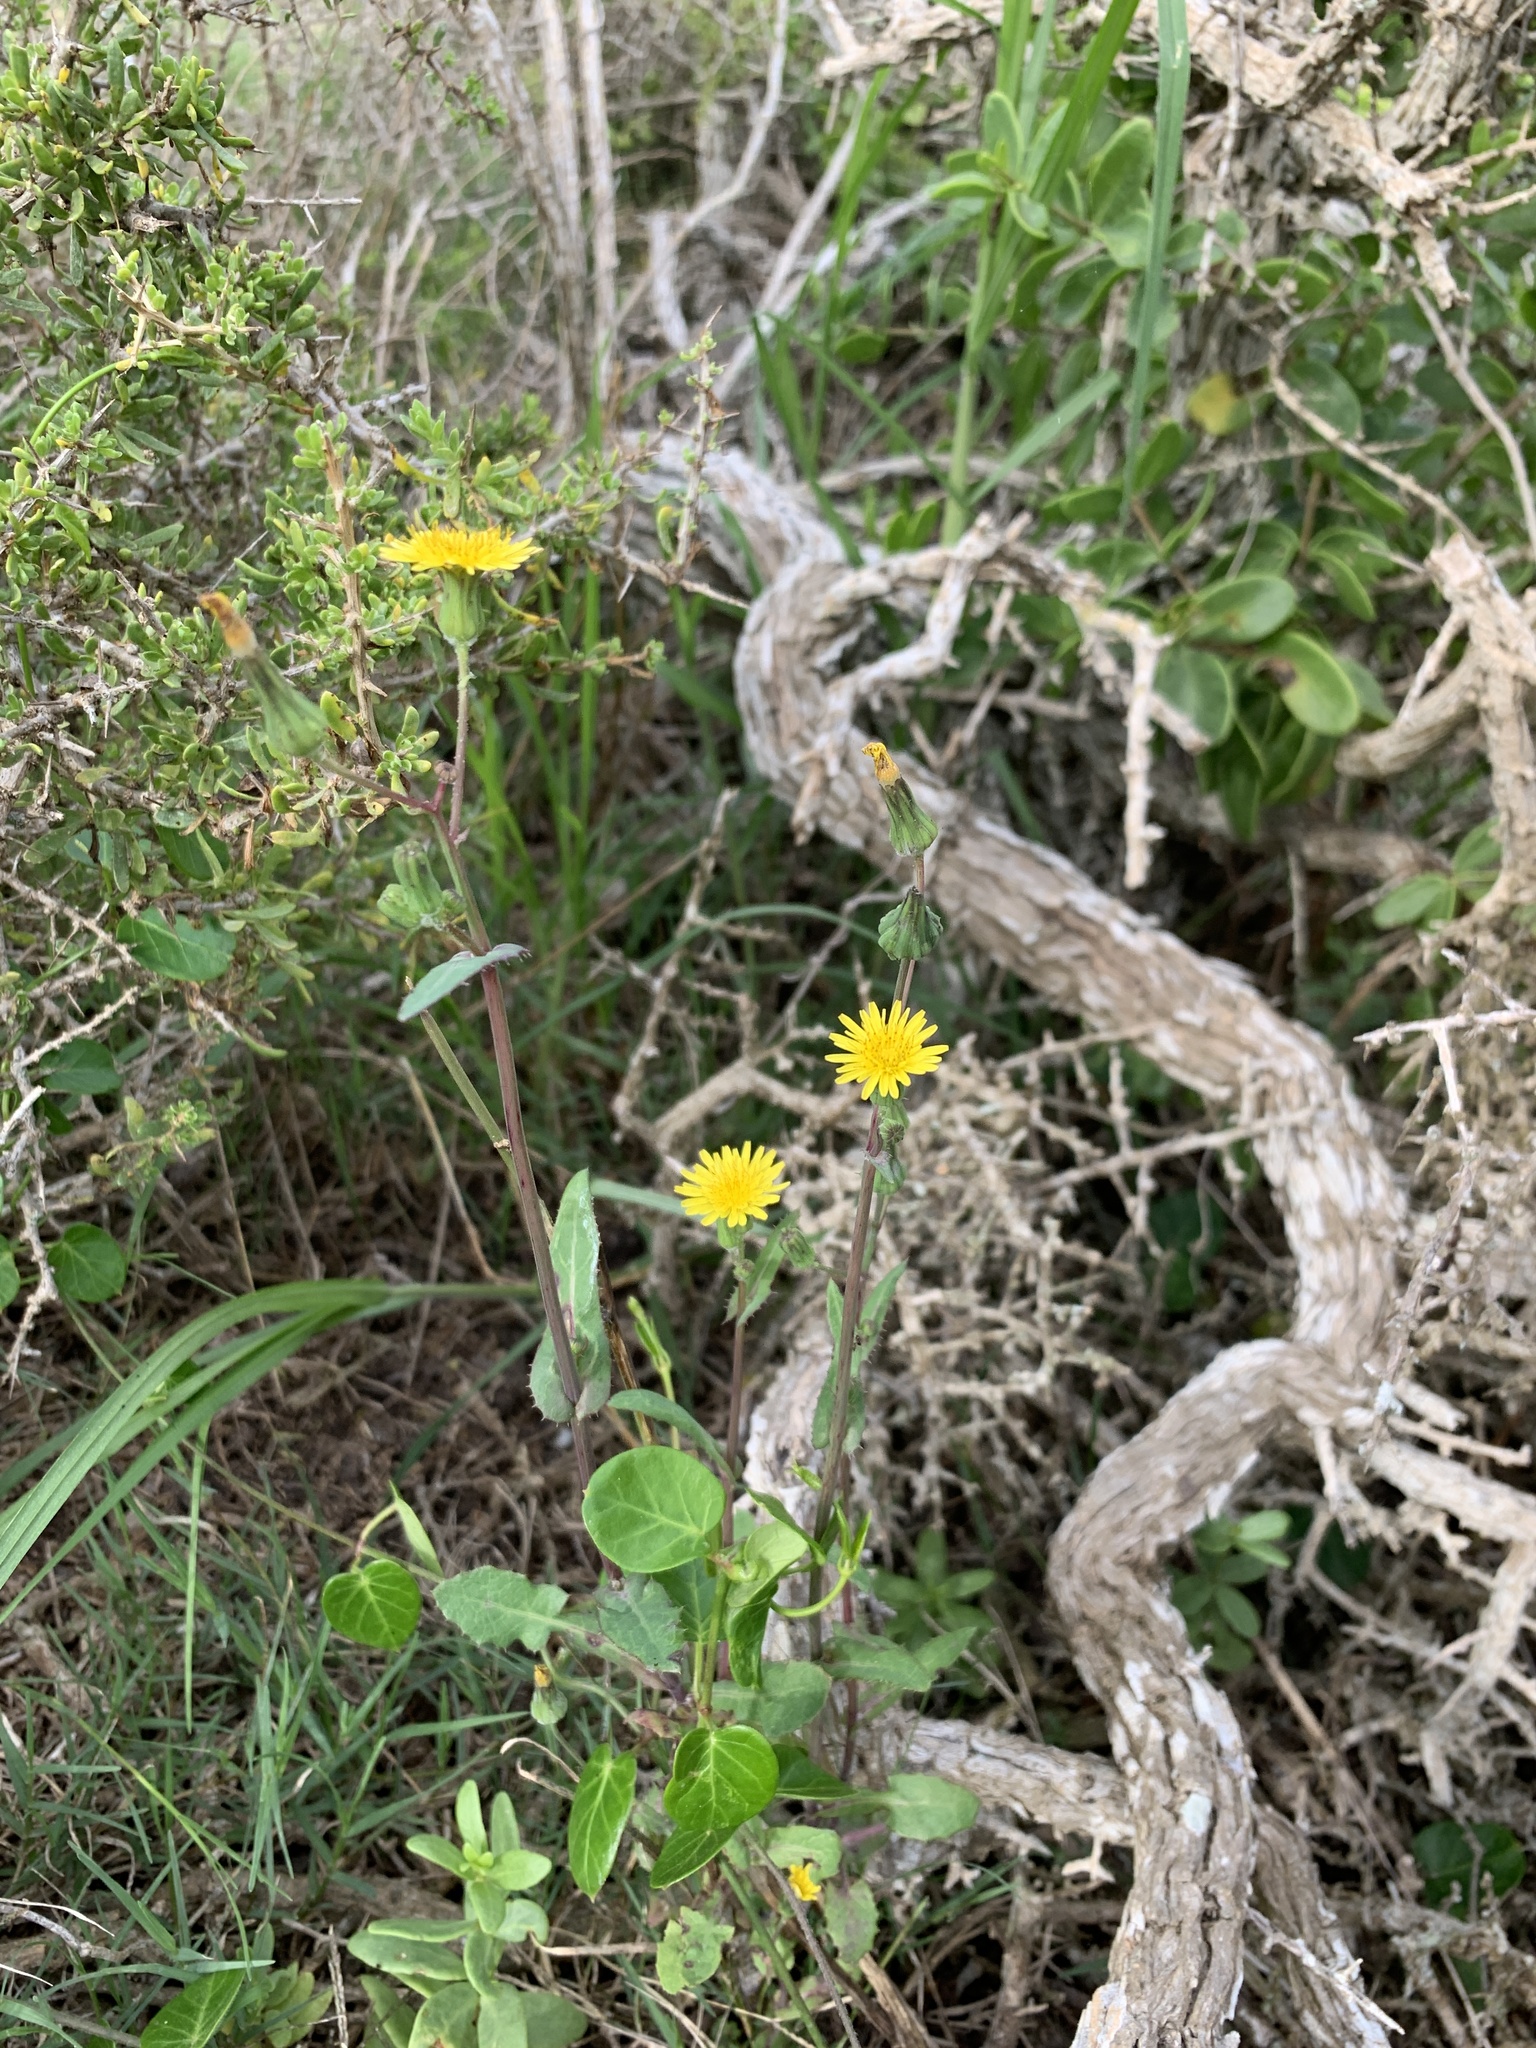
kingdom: Plantae
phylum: Tracheophyta
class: Magnoliopsida
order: Asterales
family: Asteraceae
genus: Sonchus
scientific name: Sonchus oleraceus
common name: Common sowthistle
